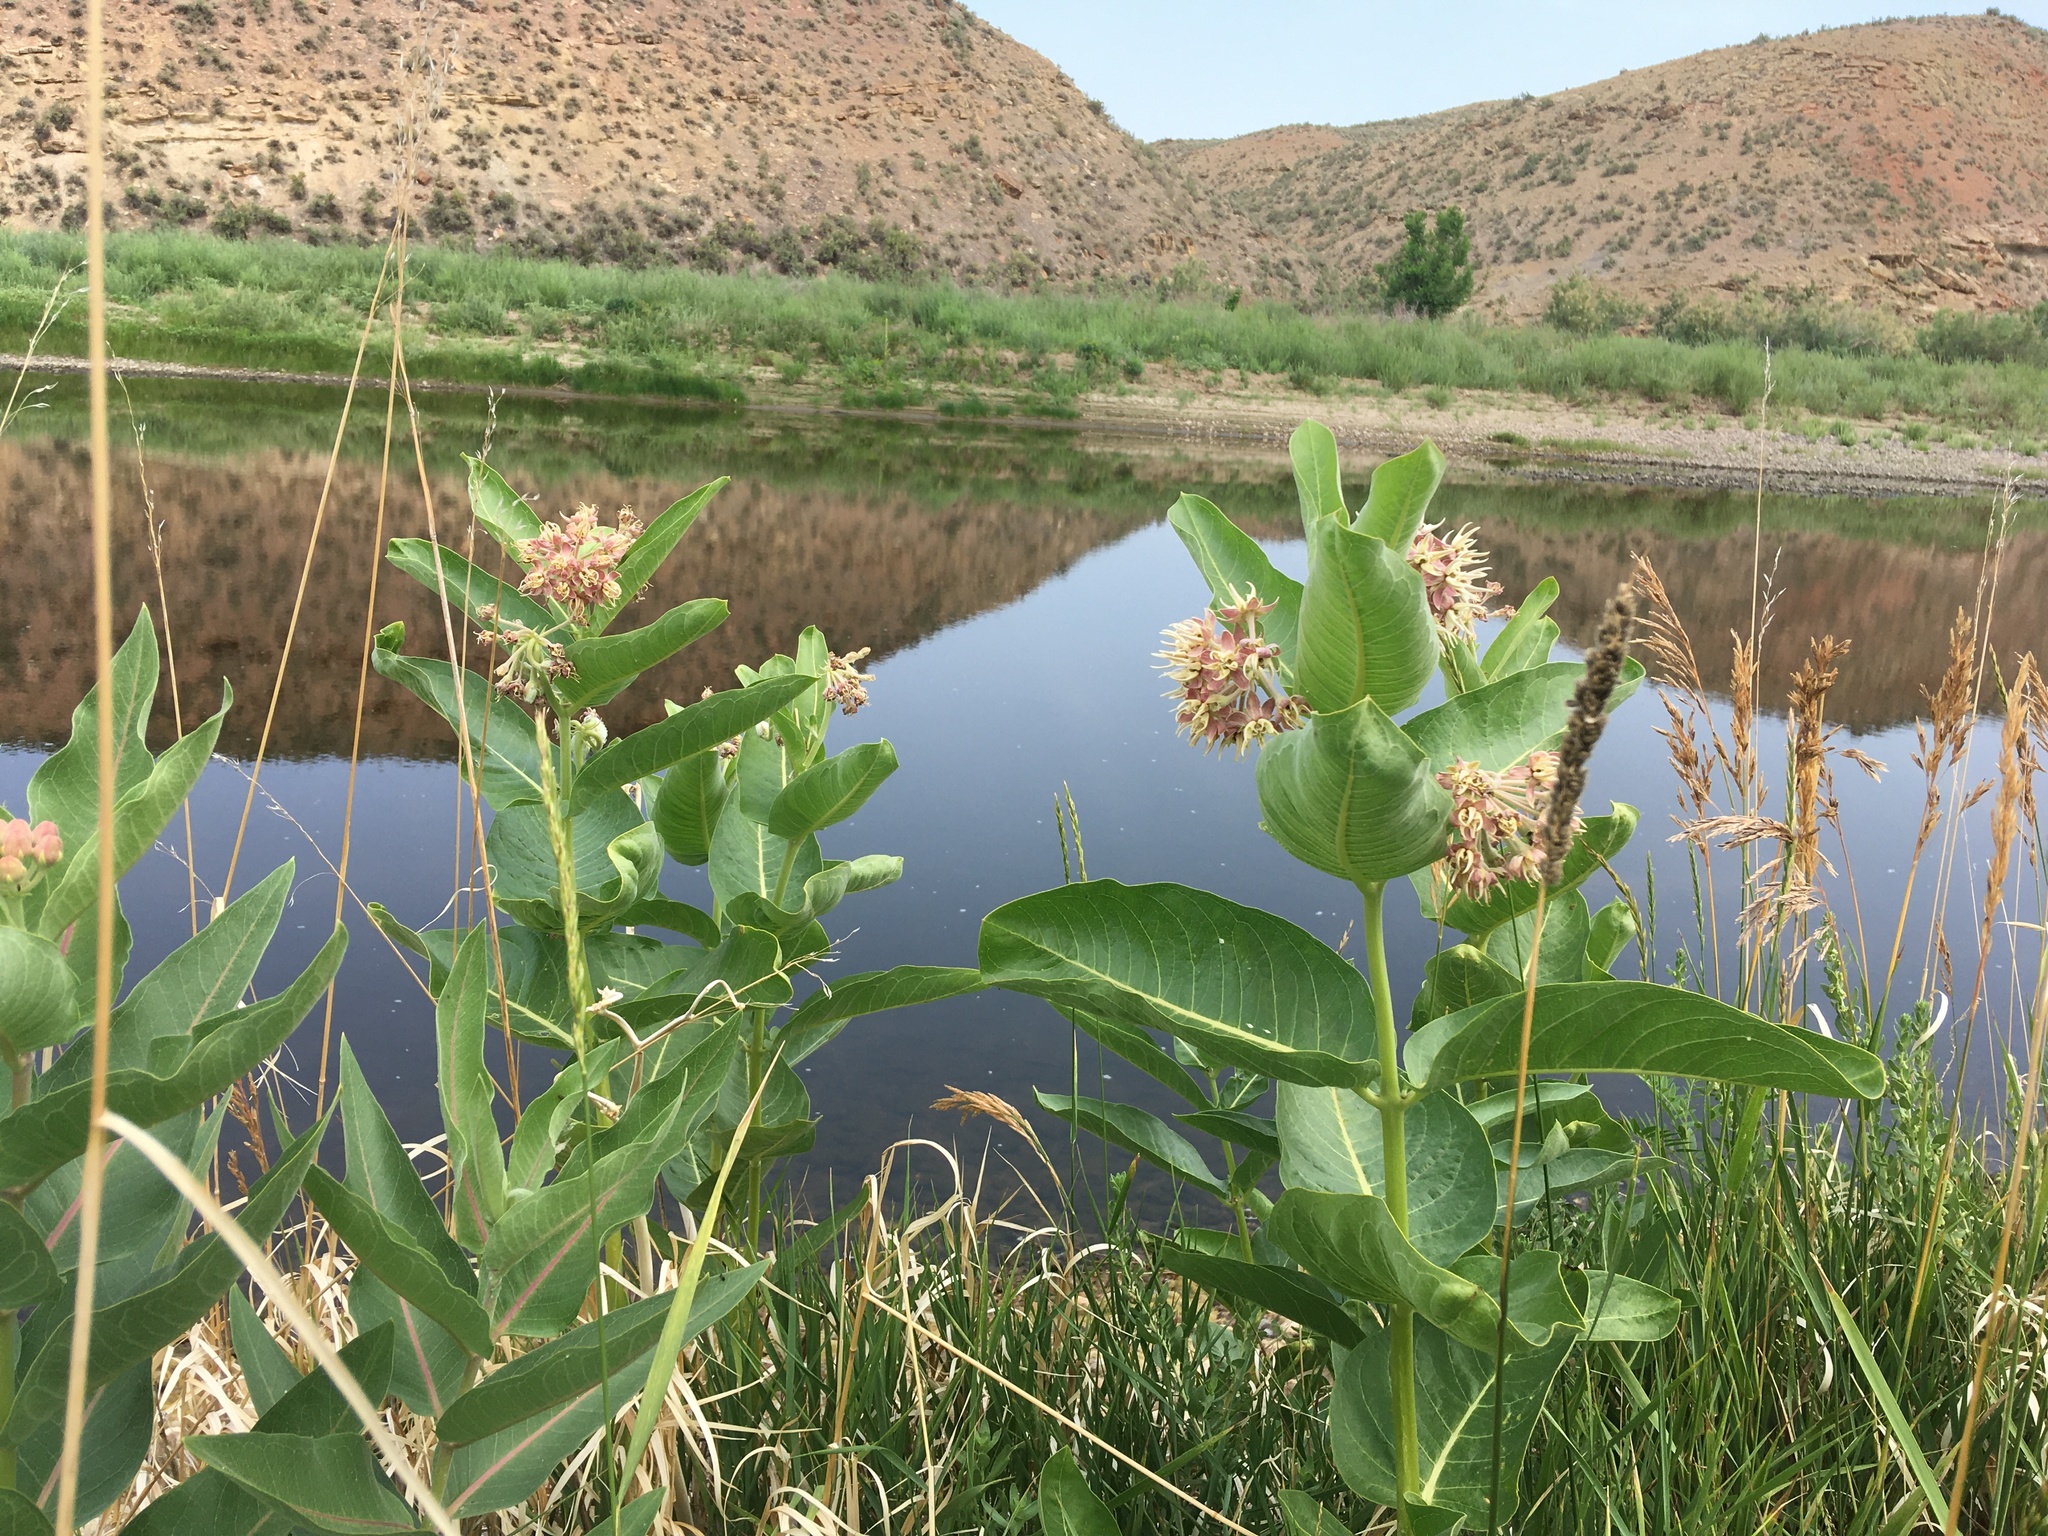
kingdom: Plantae
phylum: Tracheophyta
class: Magnoliopsida
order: Gentianales
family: Apocynaceae
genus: Asclepias
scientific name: Asclepias speciosa
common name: Showy milkweed
